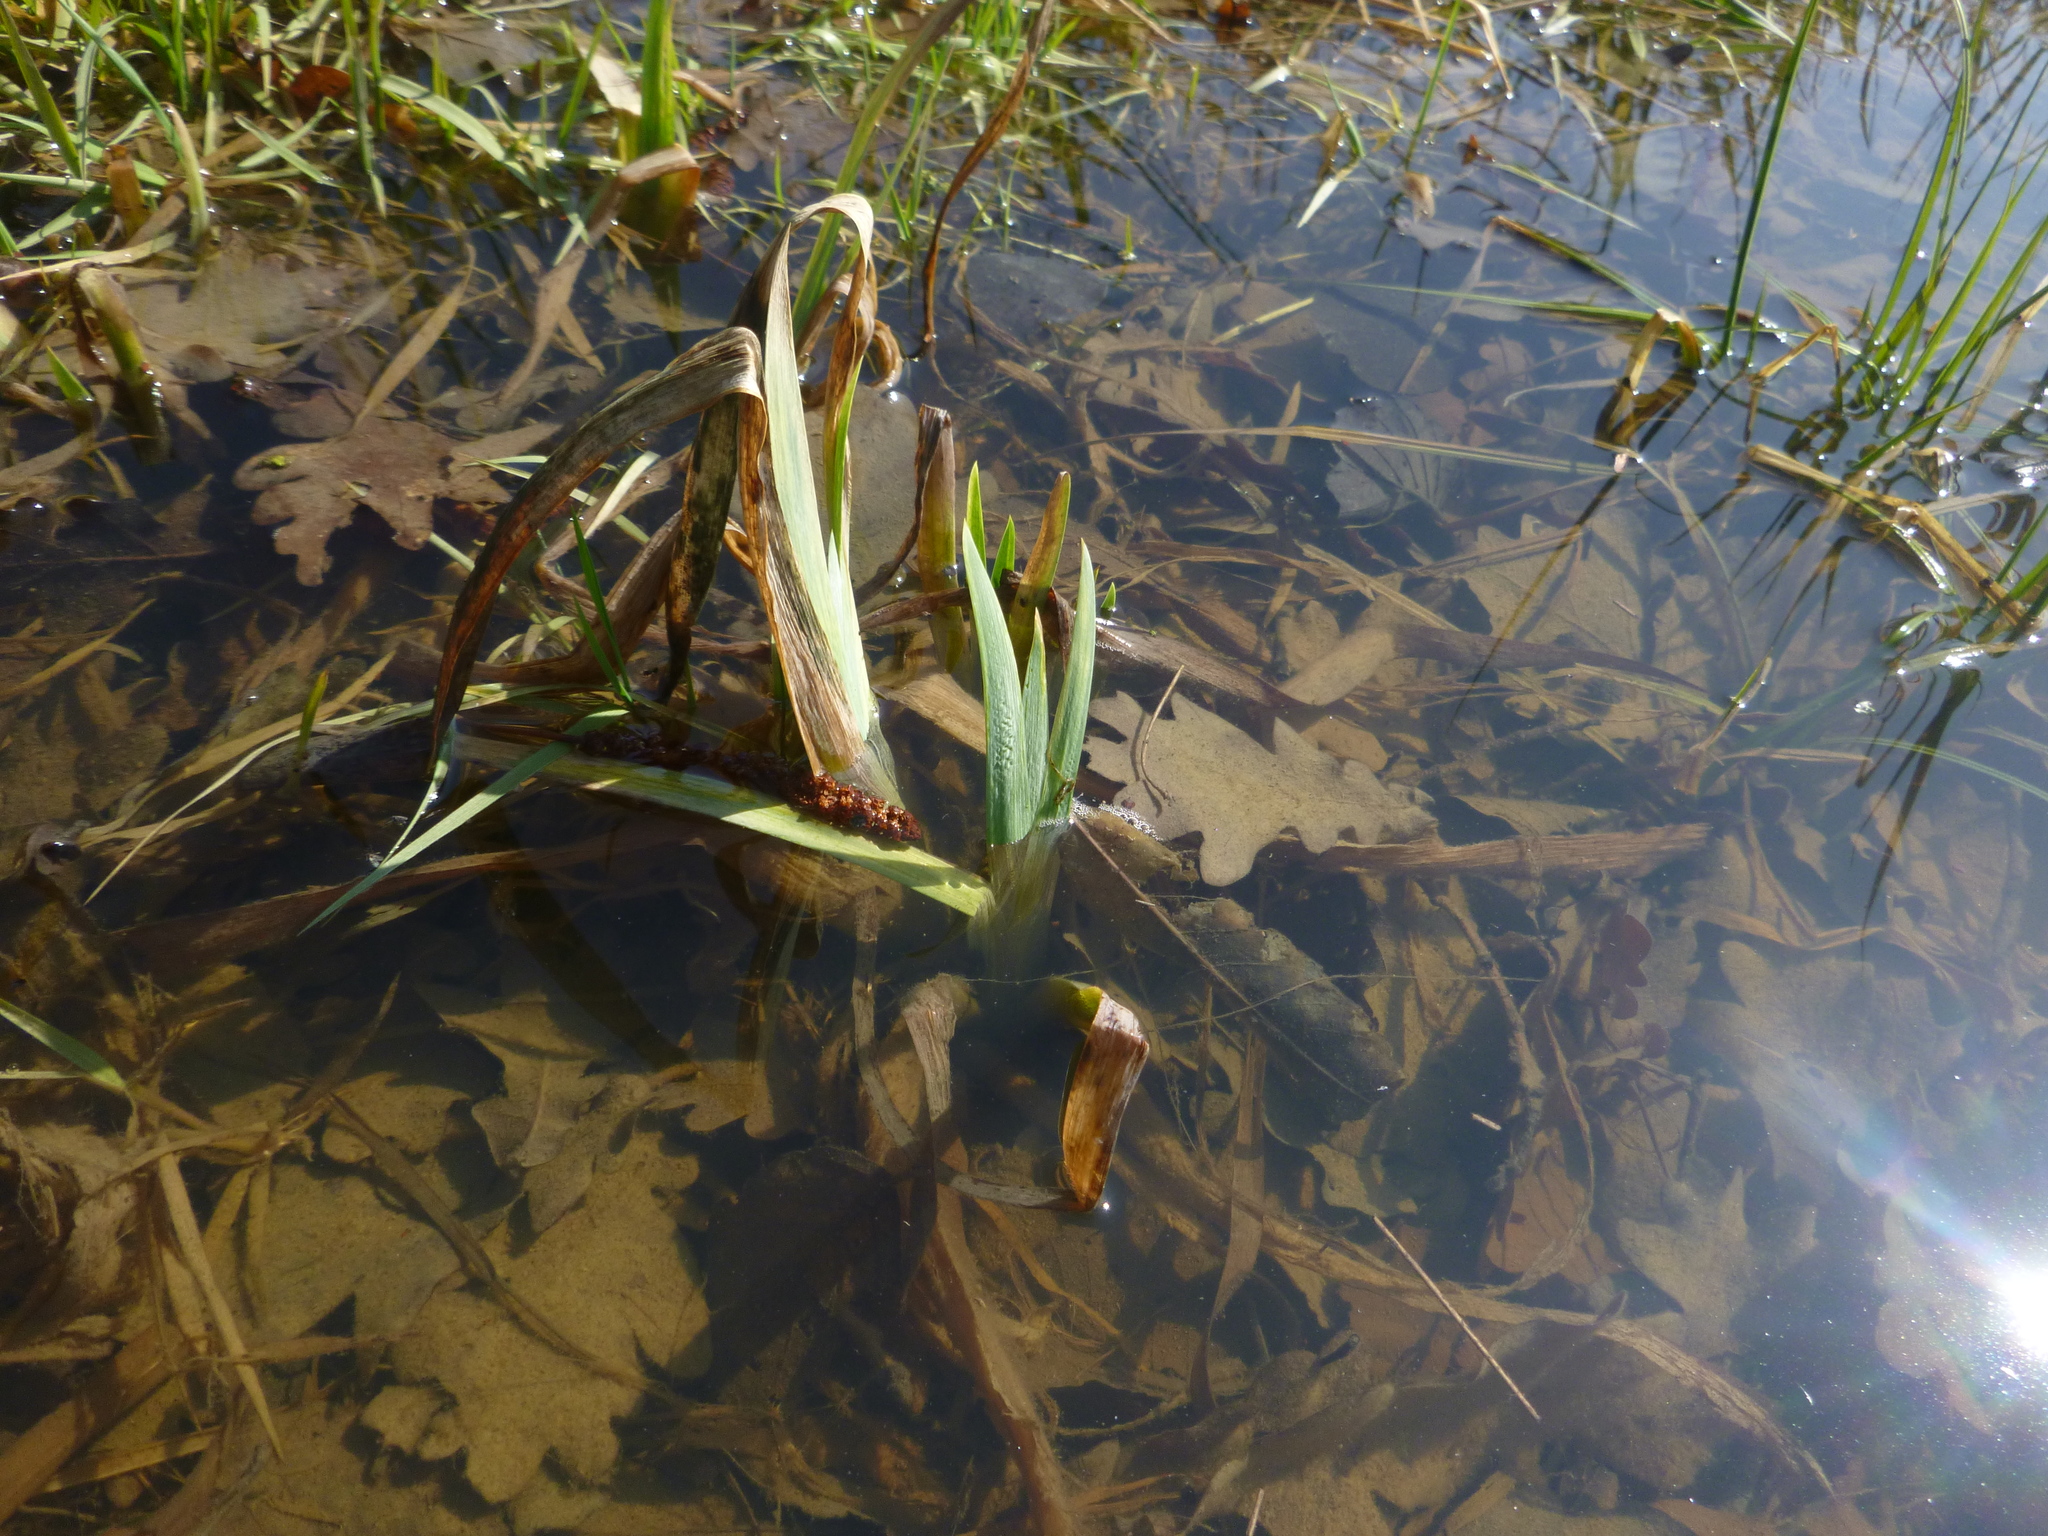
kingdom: Plantae
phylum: Tracheophyta
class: Liliopsida
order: Asparagales
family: Iridaceae
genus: Iris
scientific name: Iris pseudacorus
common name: Yellow flag
